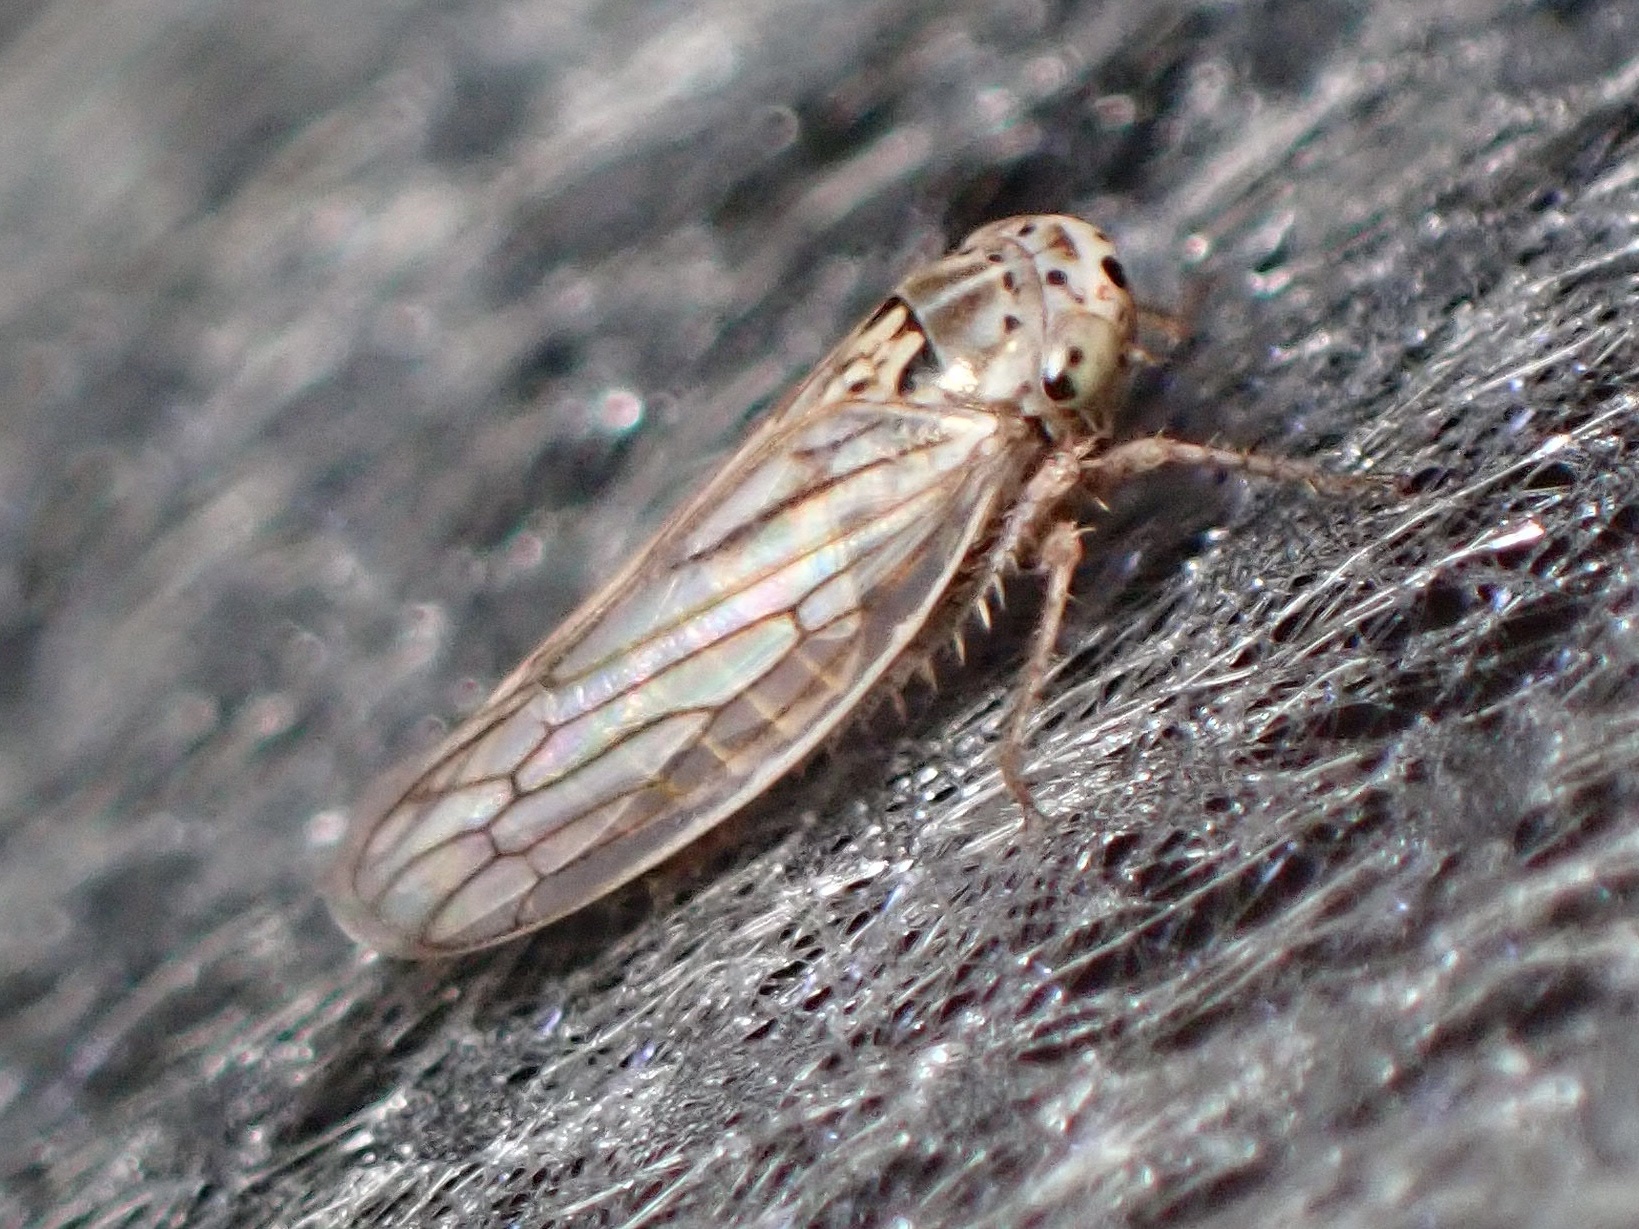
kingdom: Animalia
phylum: Arthropoda
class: Insecta
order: Hemiptera
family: Cicadellidae
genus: Exitianus
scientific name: Exitianus exitiosus
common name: Gray lawn leafhopper
